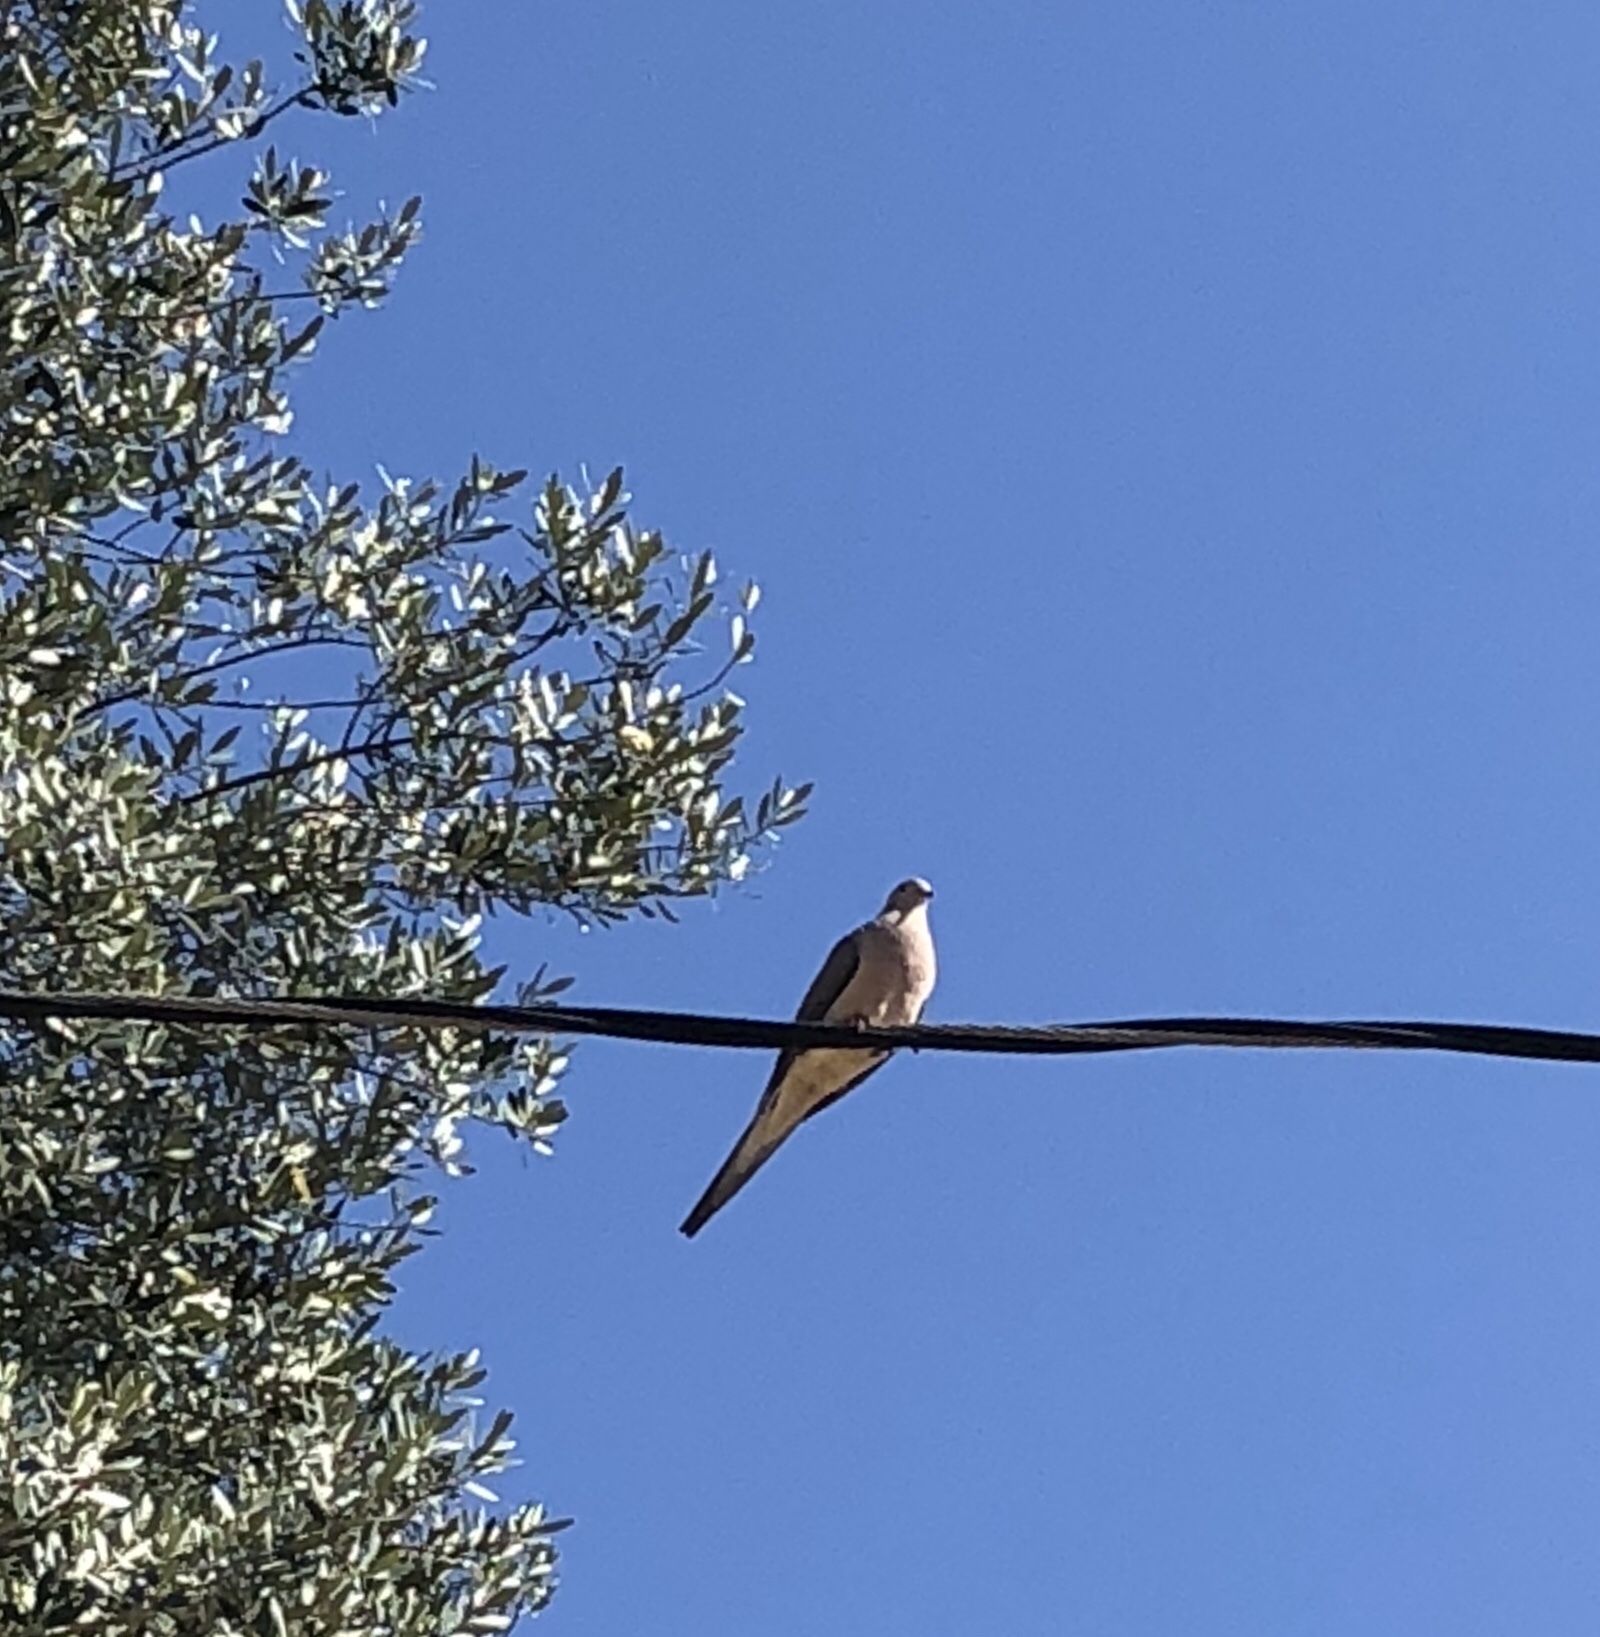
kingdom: Animalia
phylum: Chordata
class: Aves
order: Columbiformes
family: Columbidae
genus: Zenaida
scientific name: Zenaida macroura
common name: Mourning dove
